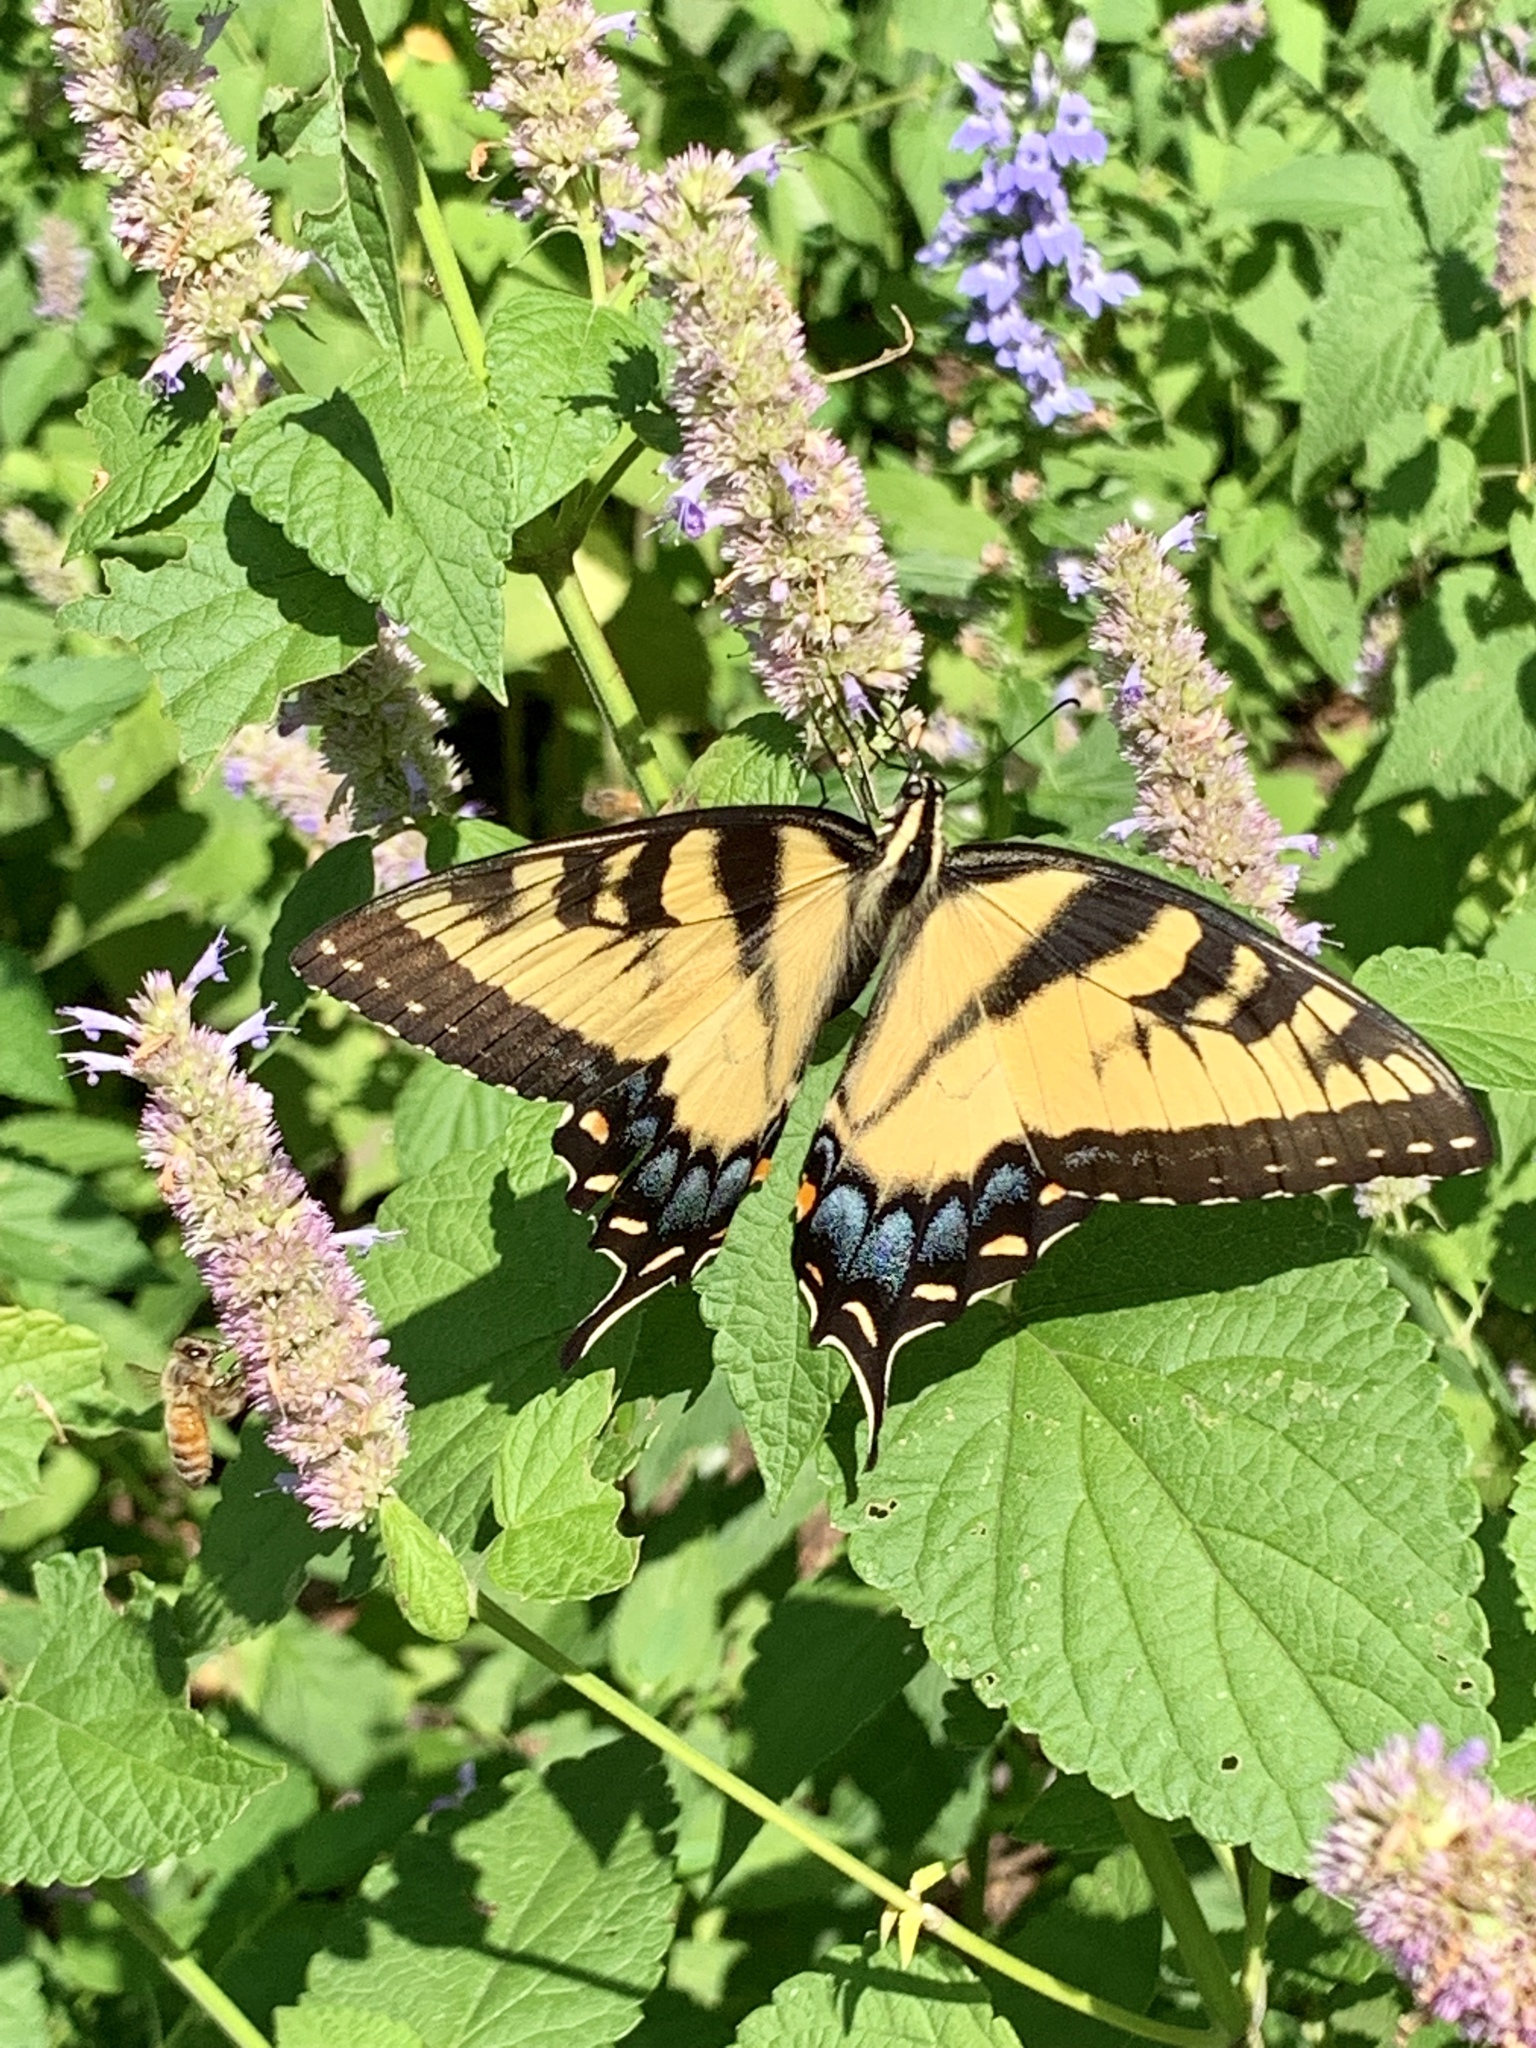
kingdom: Animalia
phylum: Arthropoda
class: Insecta
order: Lepidoptera
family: Papilionidae
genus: Papilio
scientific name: Papilio glaucus
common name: Tiger swallowtail
